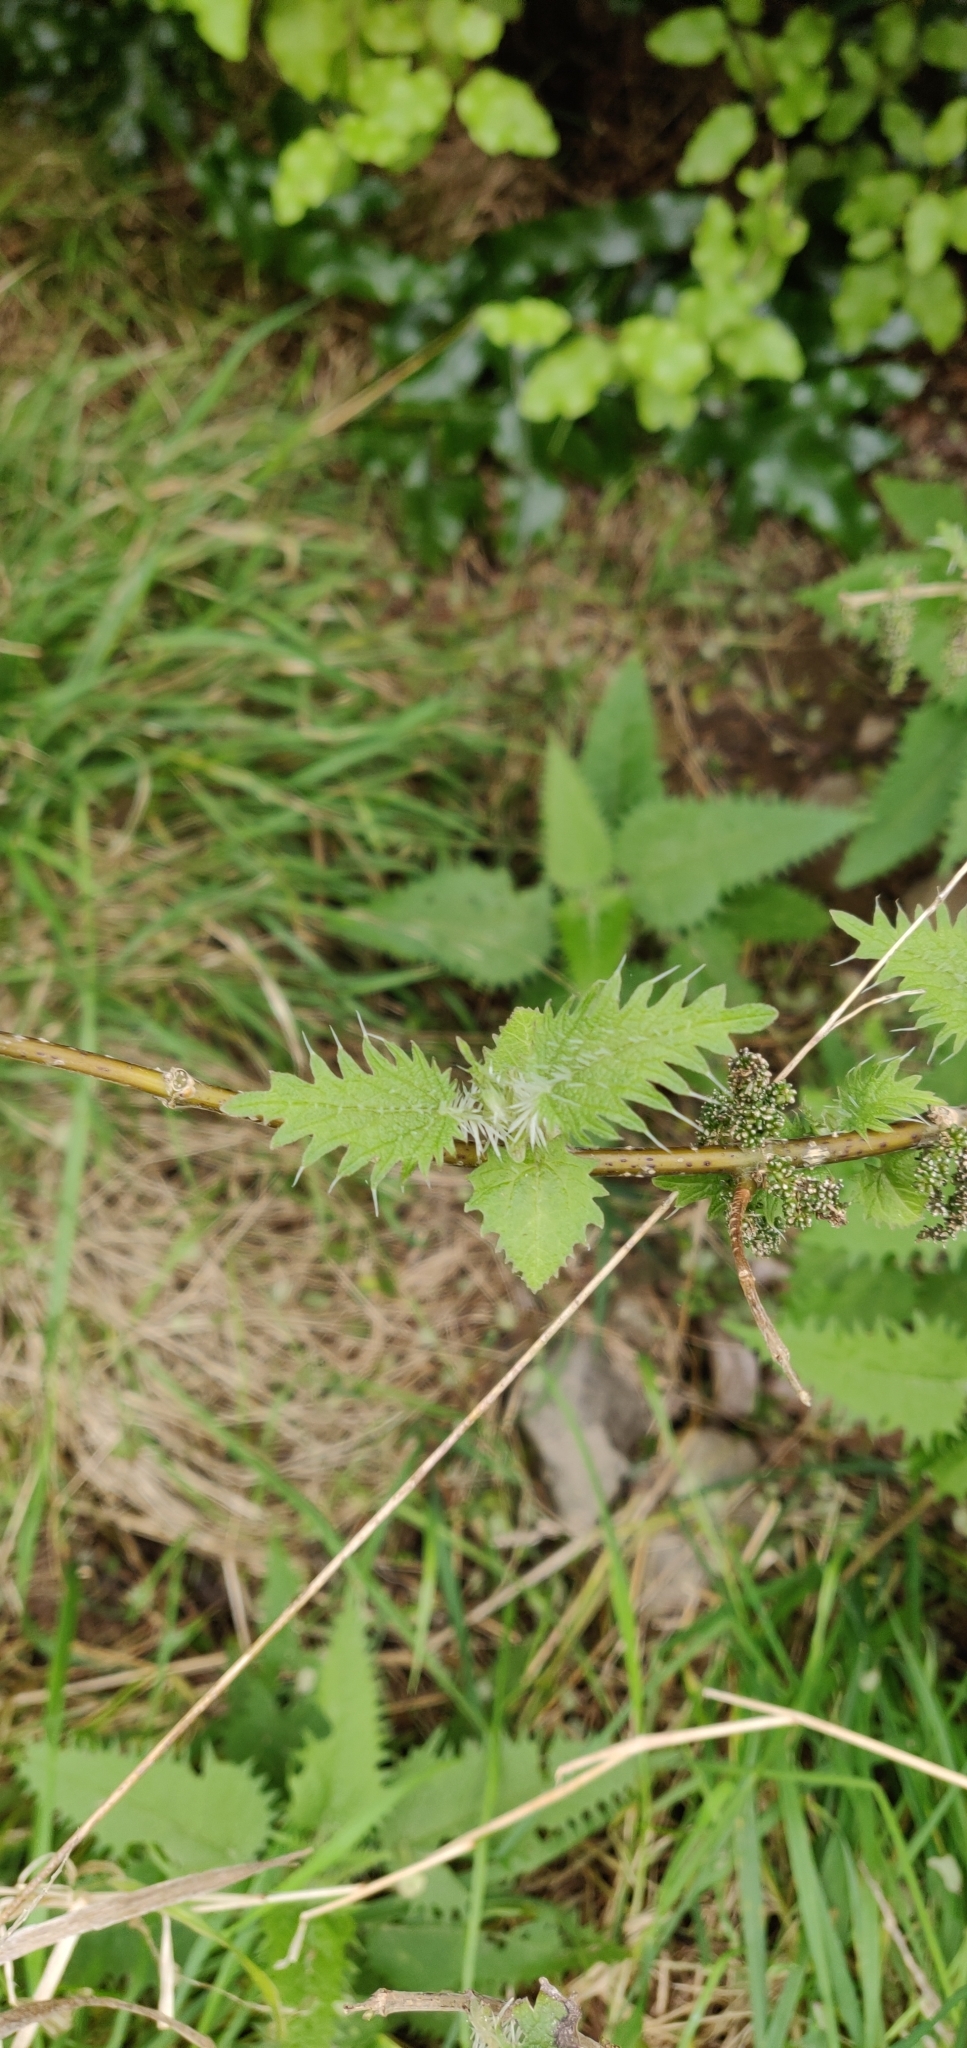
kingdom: Plantae
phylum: Tracheophyta
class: Magnoliopsida
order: Rosales
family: Urticaceae
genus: Urtica
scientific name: Urtica ferox
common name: Tree nettle
